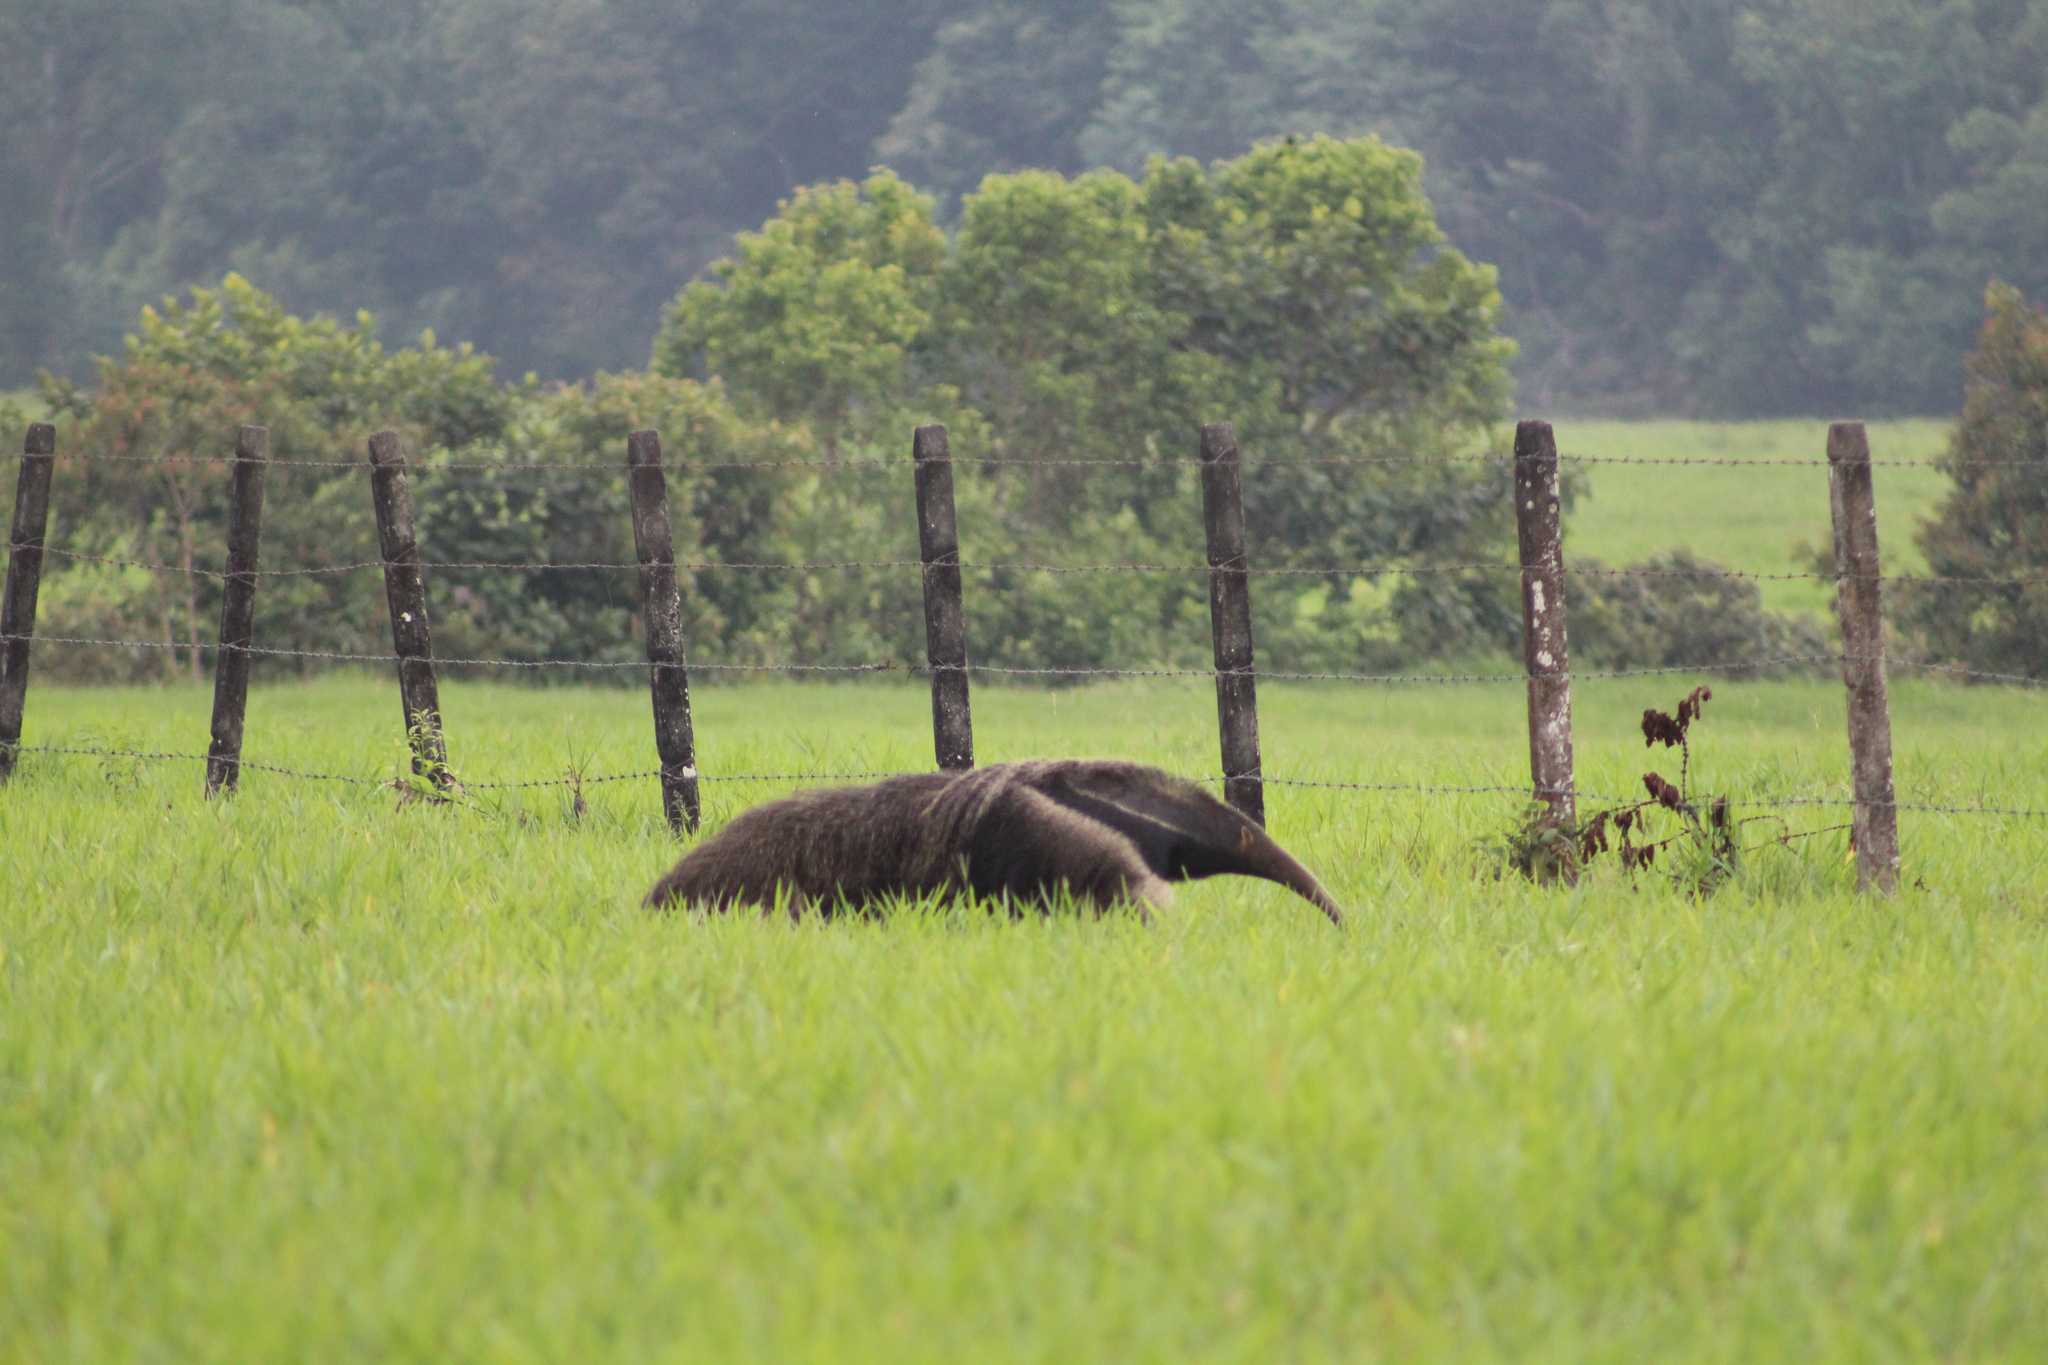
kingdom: Animalia
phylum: Chordata
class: Mammalia
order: Pilosa
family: Myrmecophagidae
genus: Myrmecophaga
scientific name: Myrmecophaga tridactyla
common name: Giant anteater
